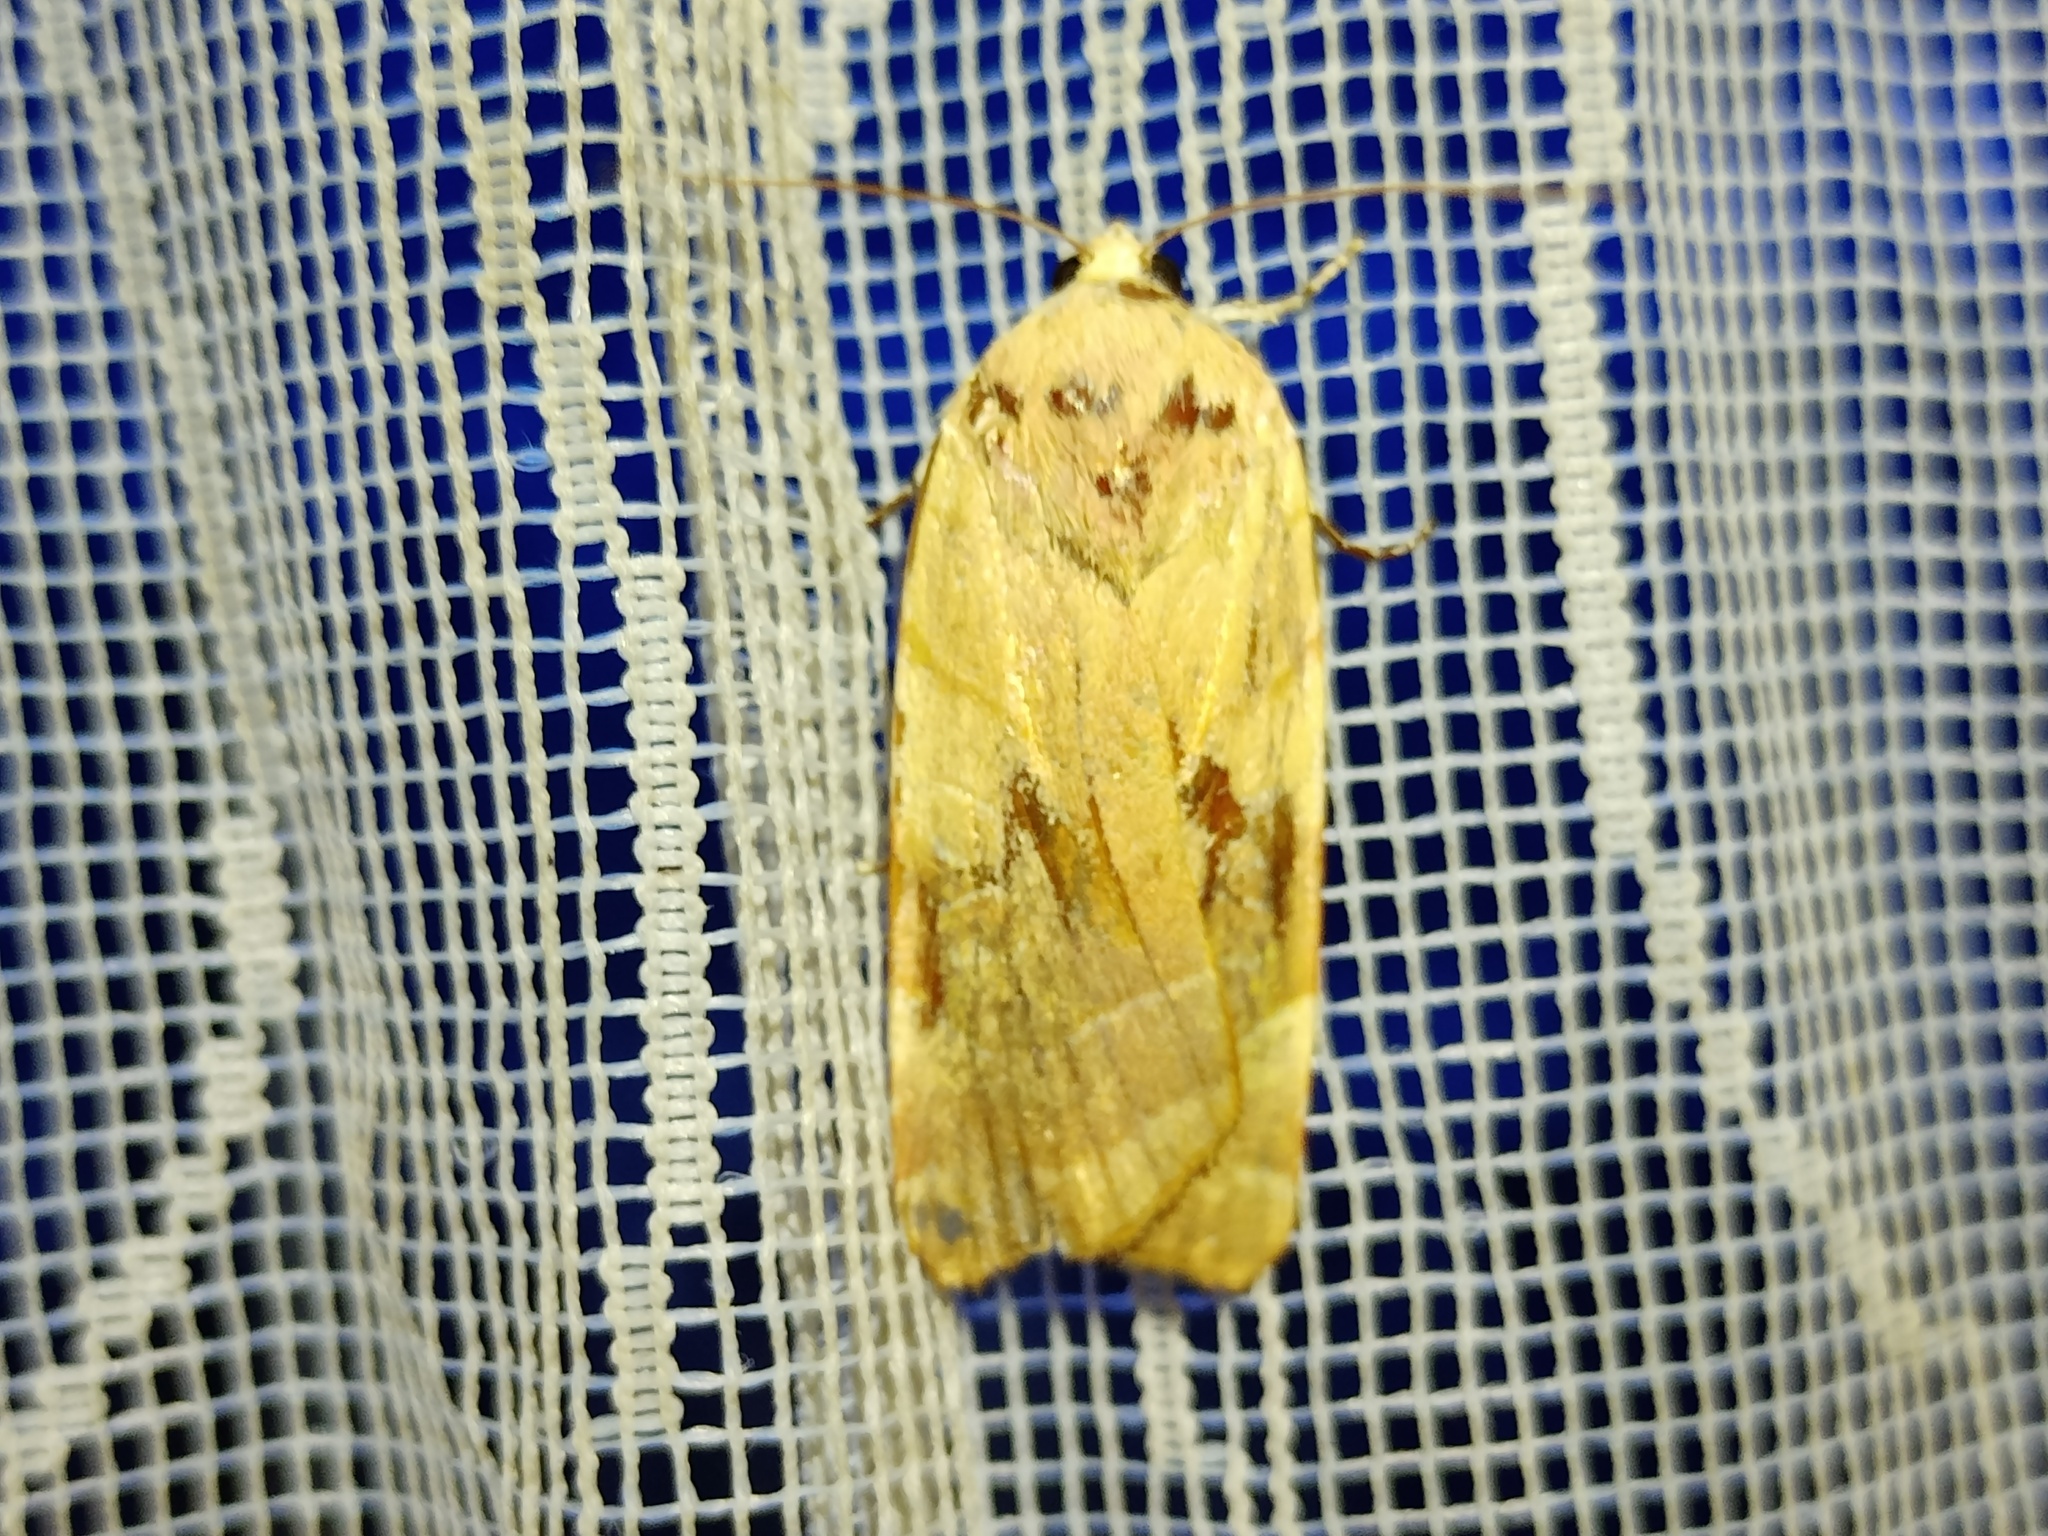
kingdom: Animalia
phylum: Arthropoda
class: Insecta
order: Lepidoptera
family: Noctuidae
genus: Noctua
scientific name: Noctua fimbriata
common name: Broad-bordered yellow underwing
